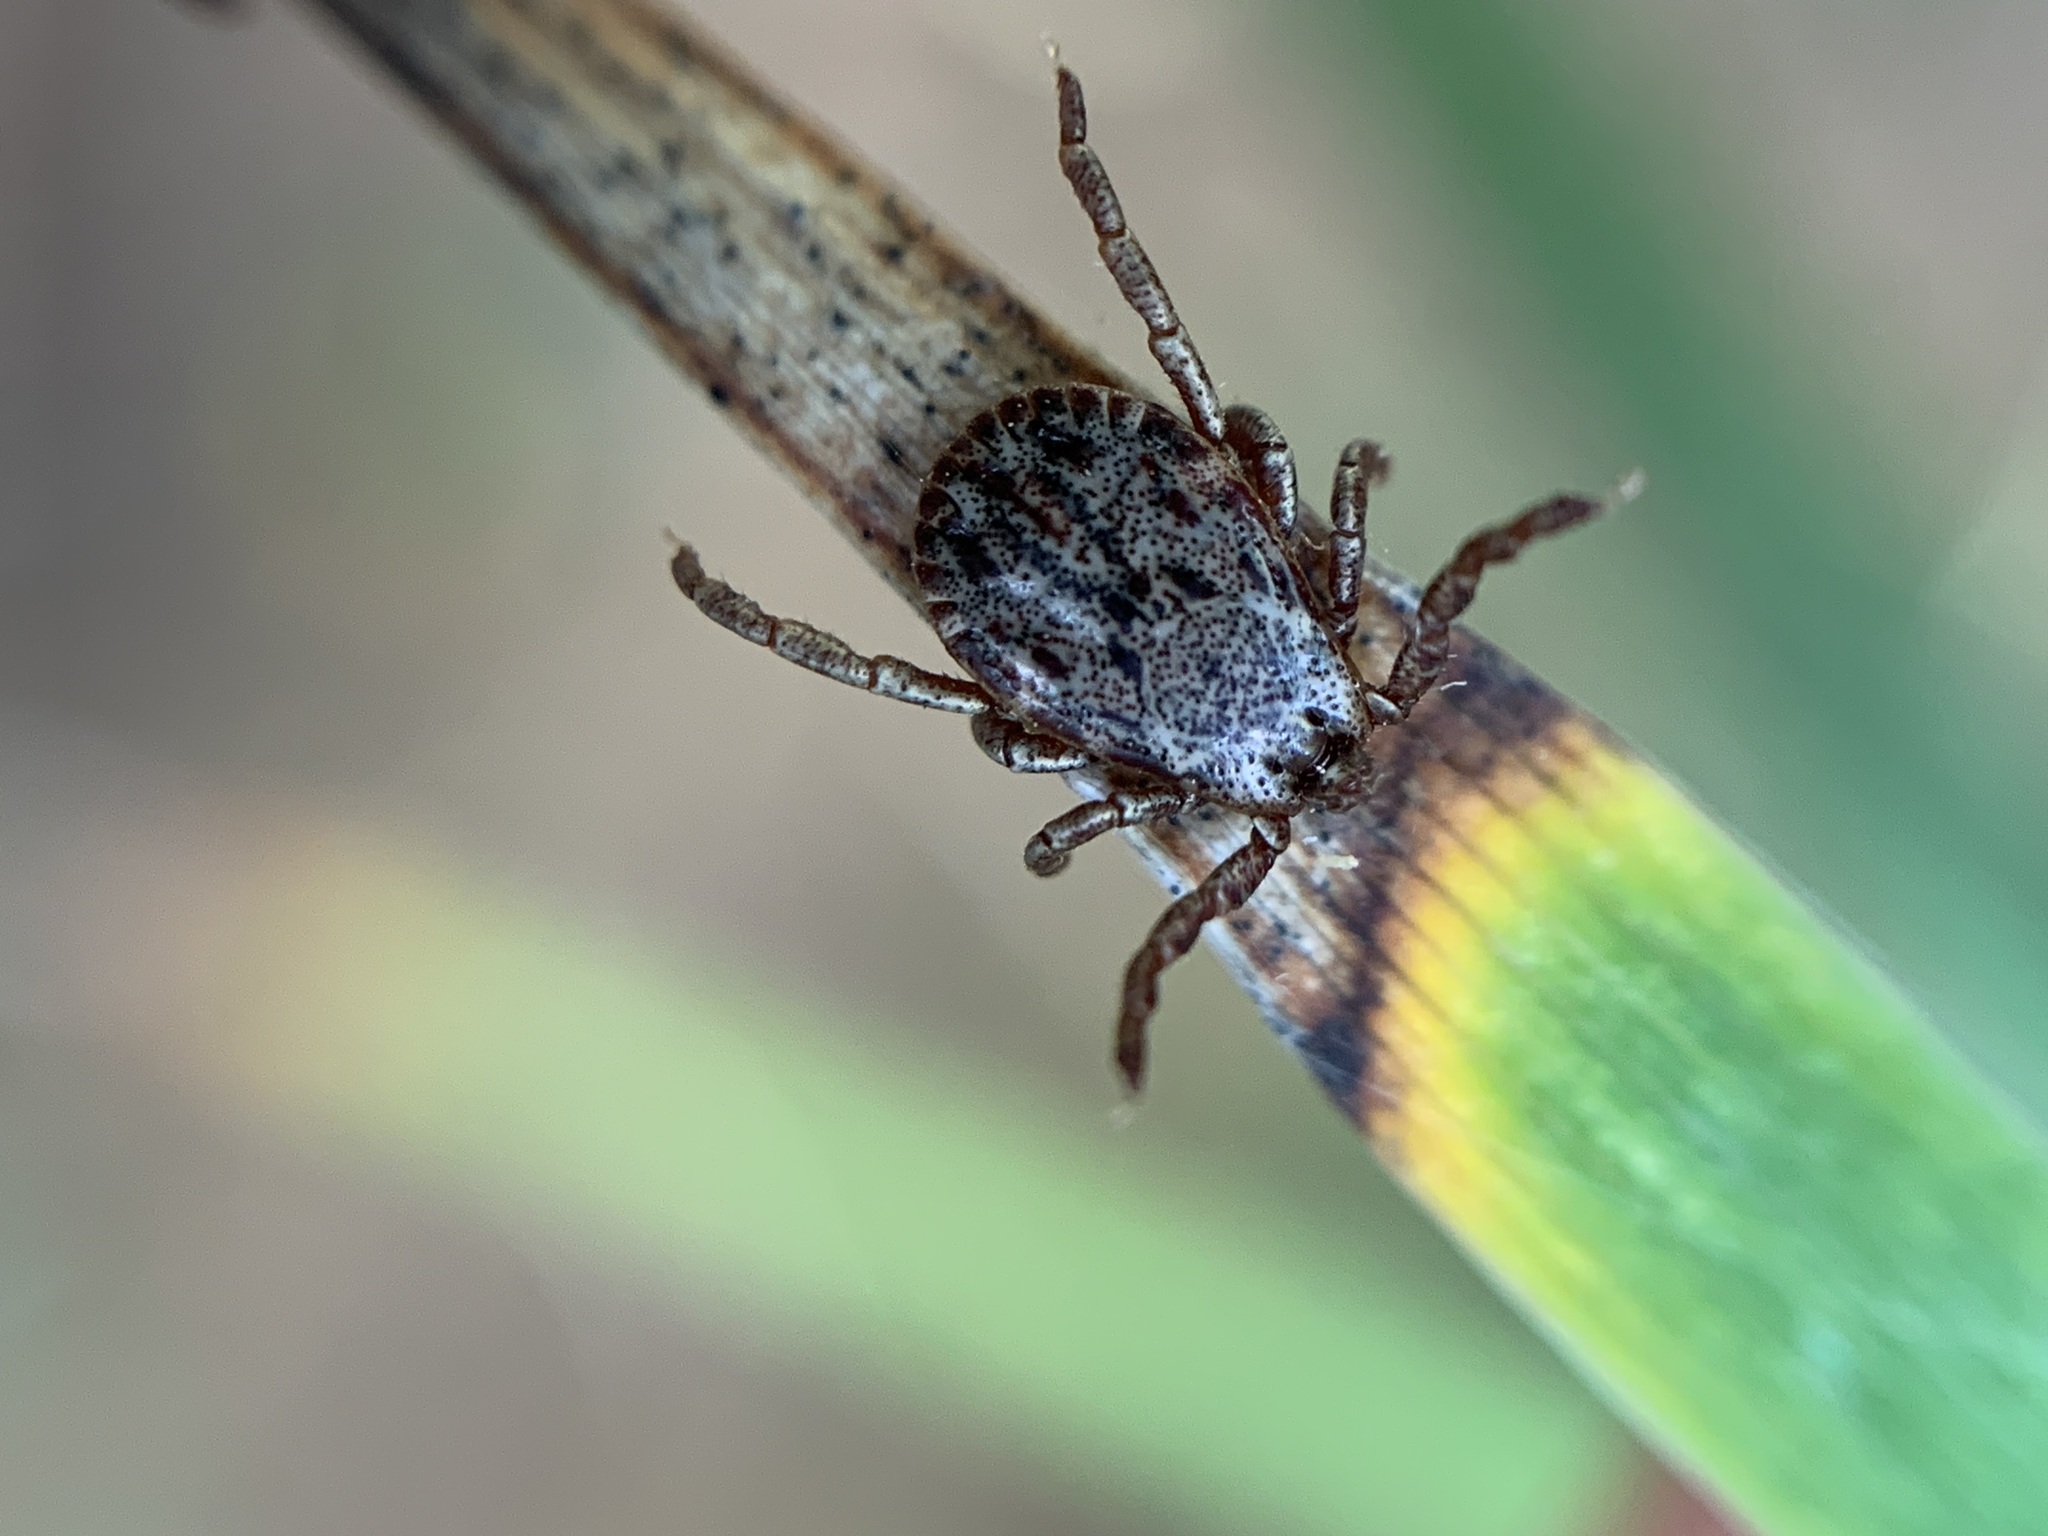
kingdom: Animalia
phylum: Arthropoda
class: Arachnida
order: Ixodida
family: Ixodidae
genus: Dermacentor
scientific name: Dermacentor occidentalis
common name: Net tick
